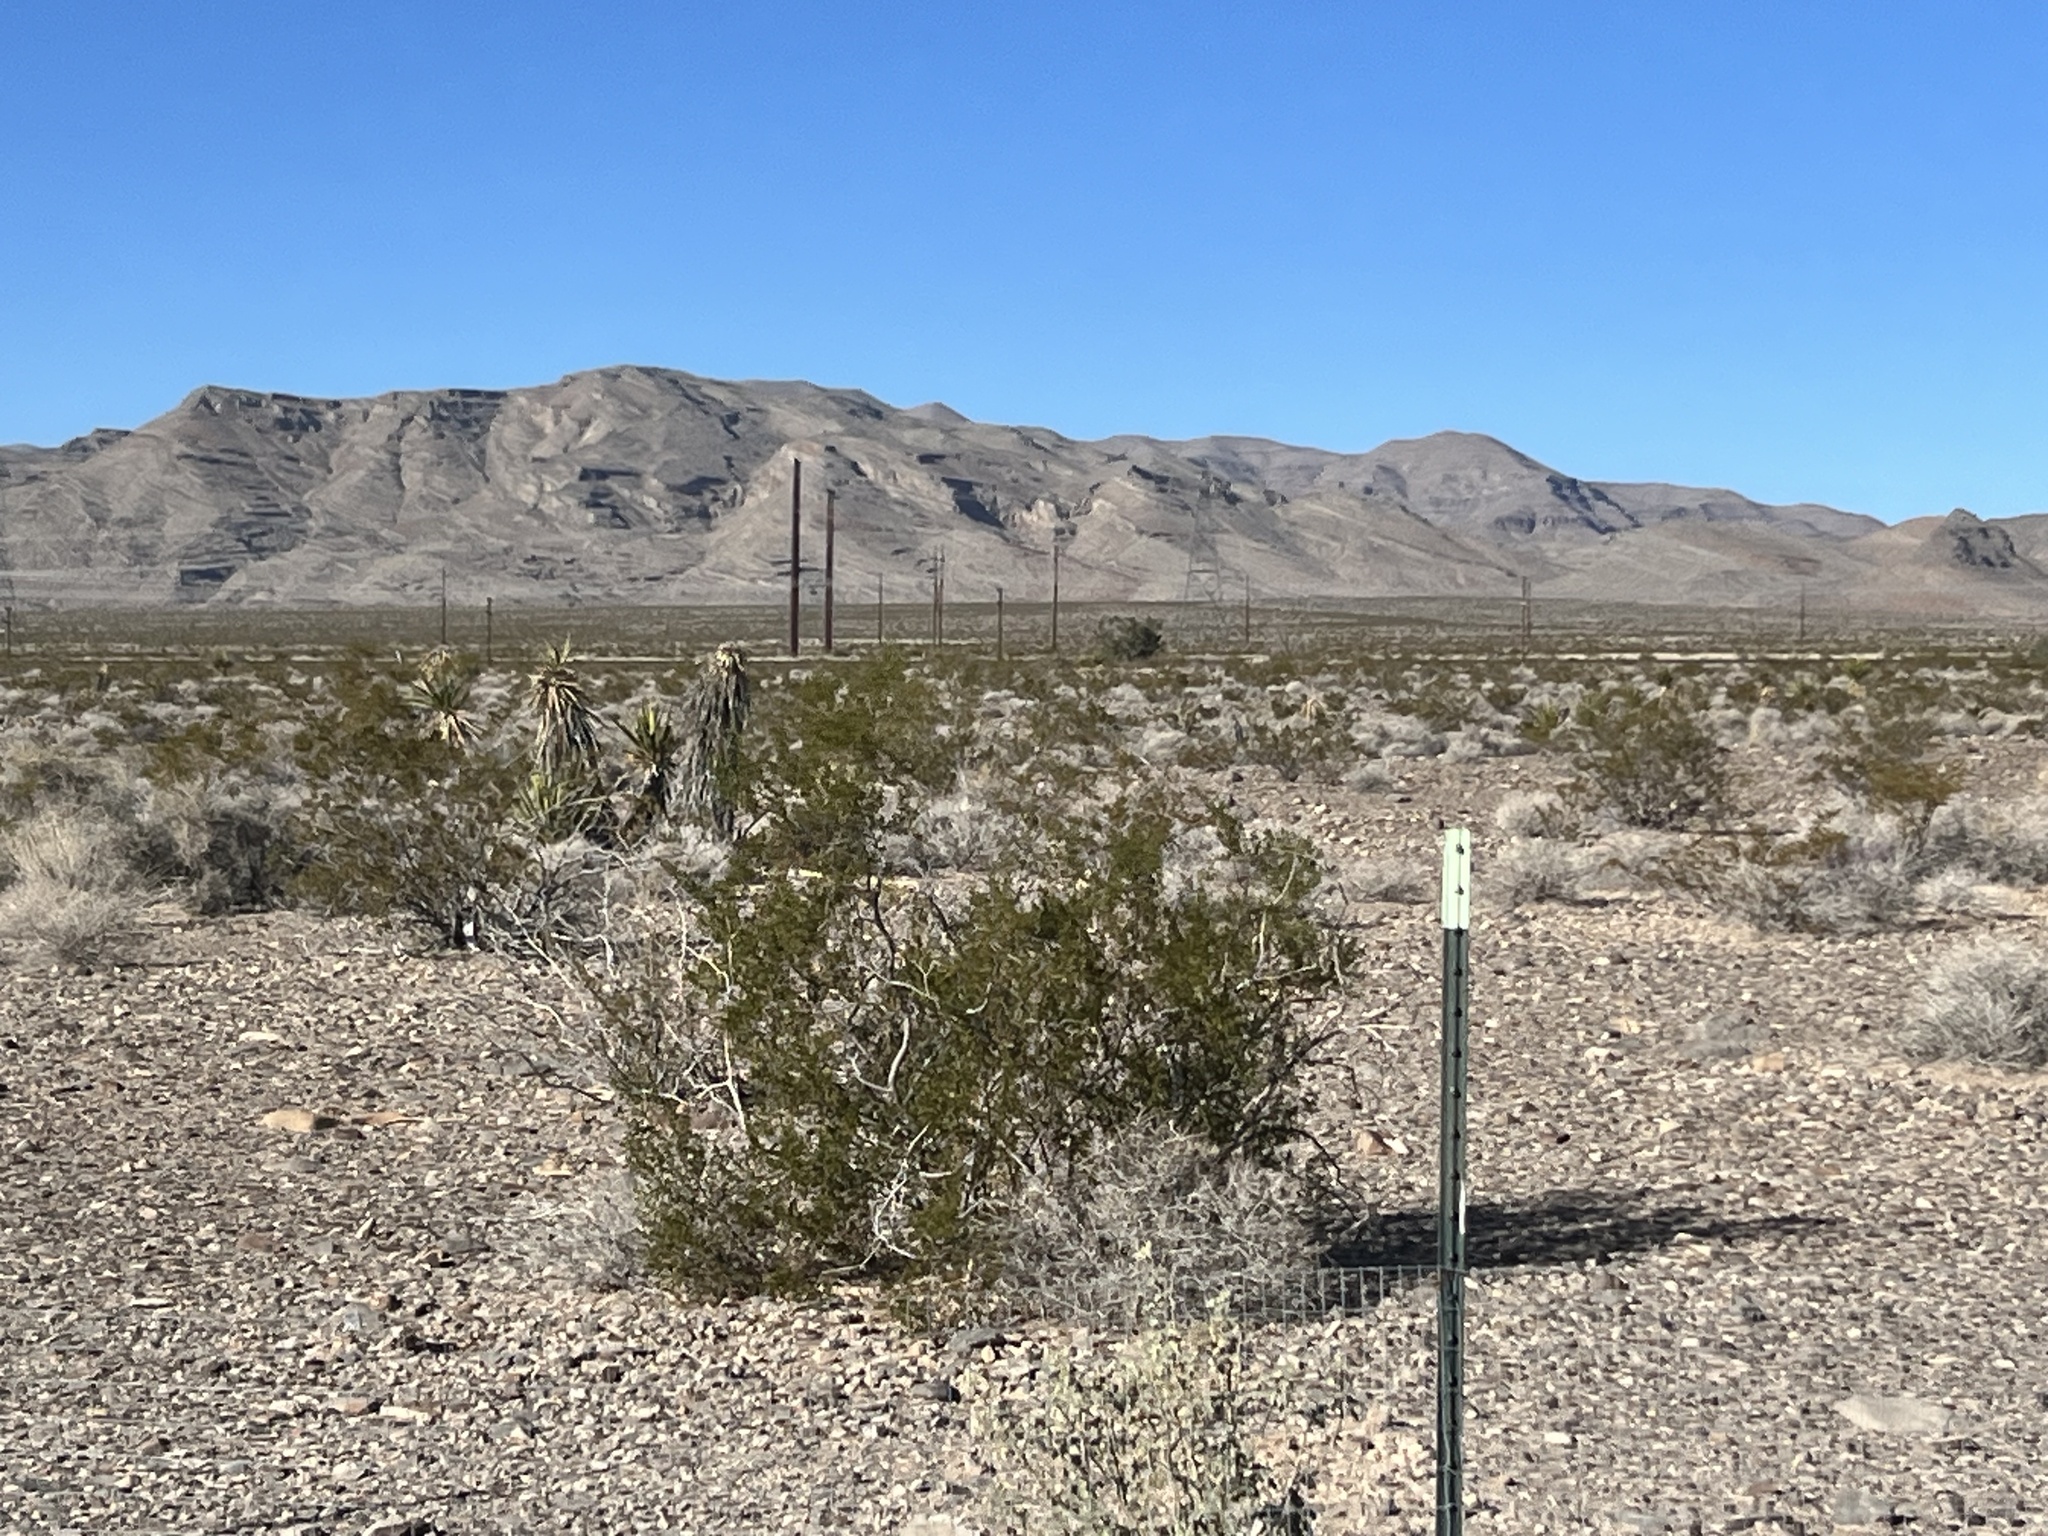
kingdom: Plantae
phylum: Tracheophyta
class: Magnoliopsida
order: Zygophyllales
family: Zygophyllaceae
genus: Larrea
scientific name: Larrea tridentata
